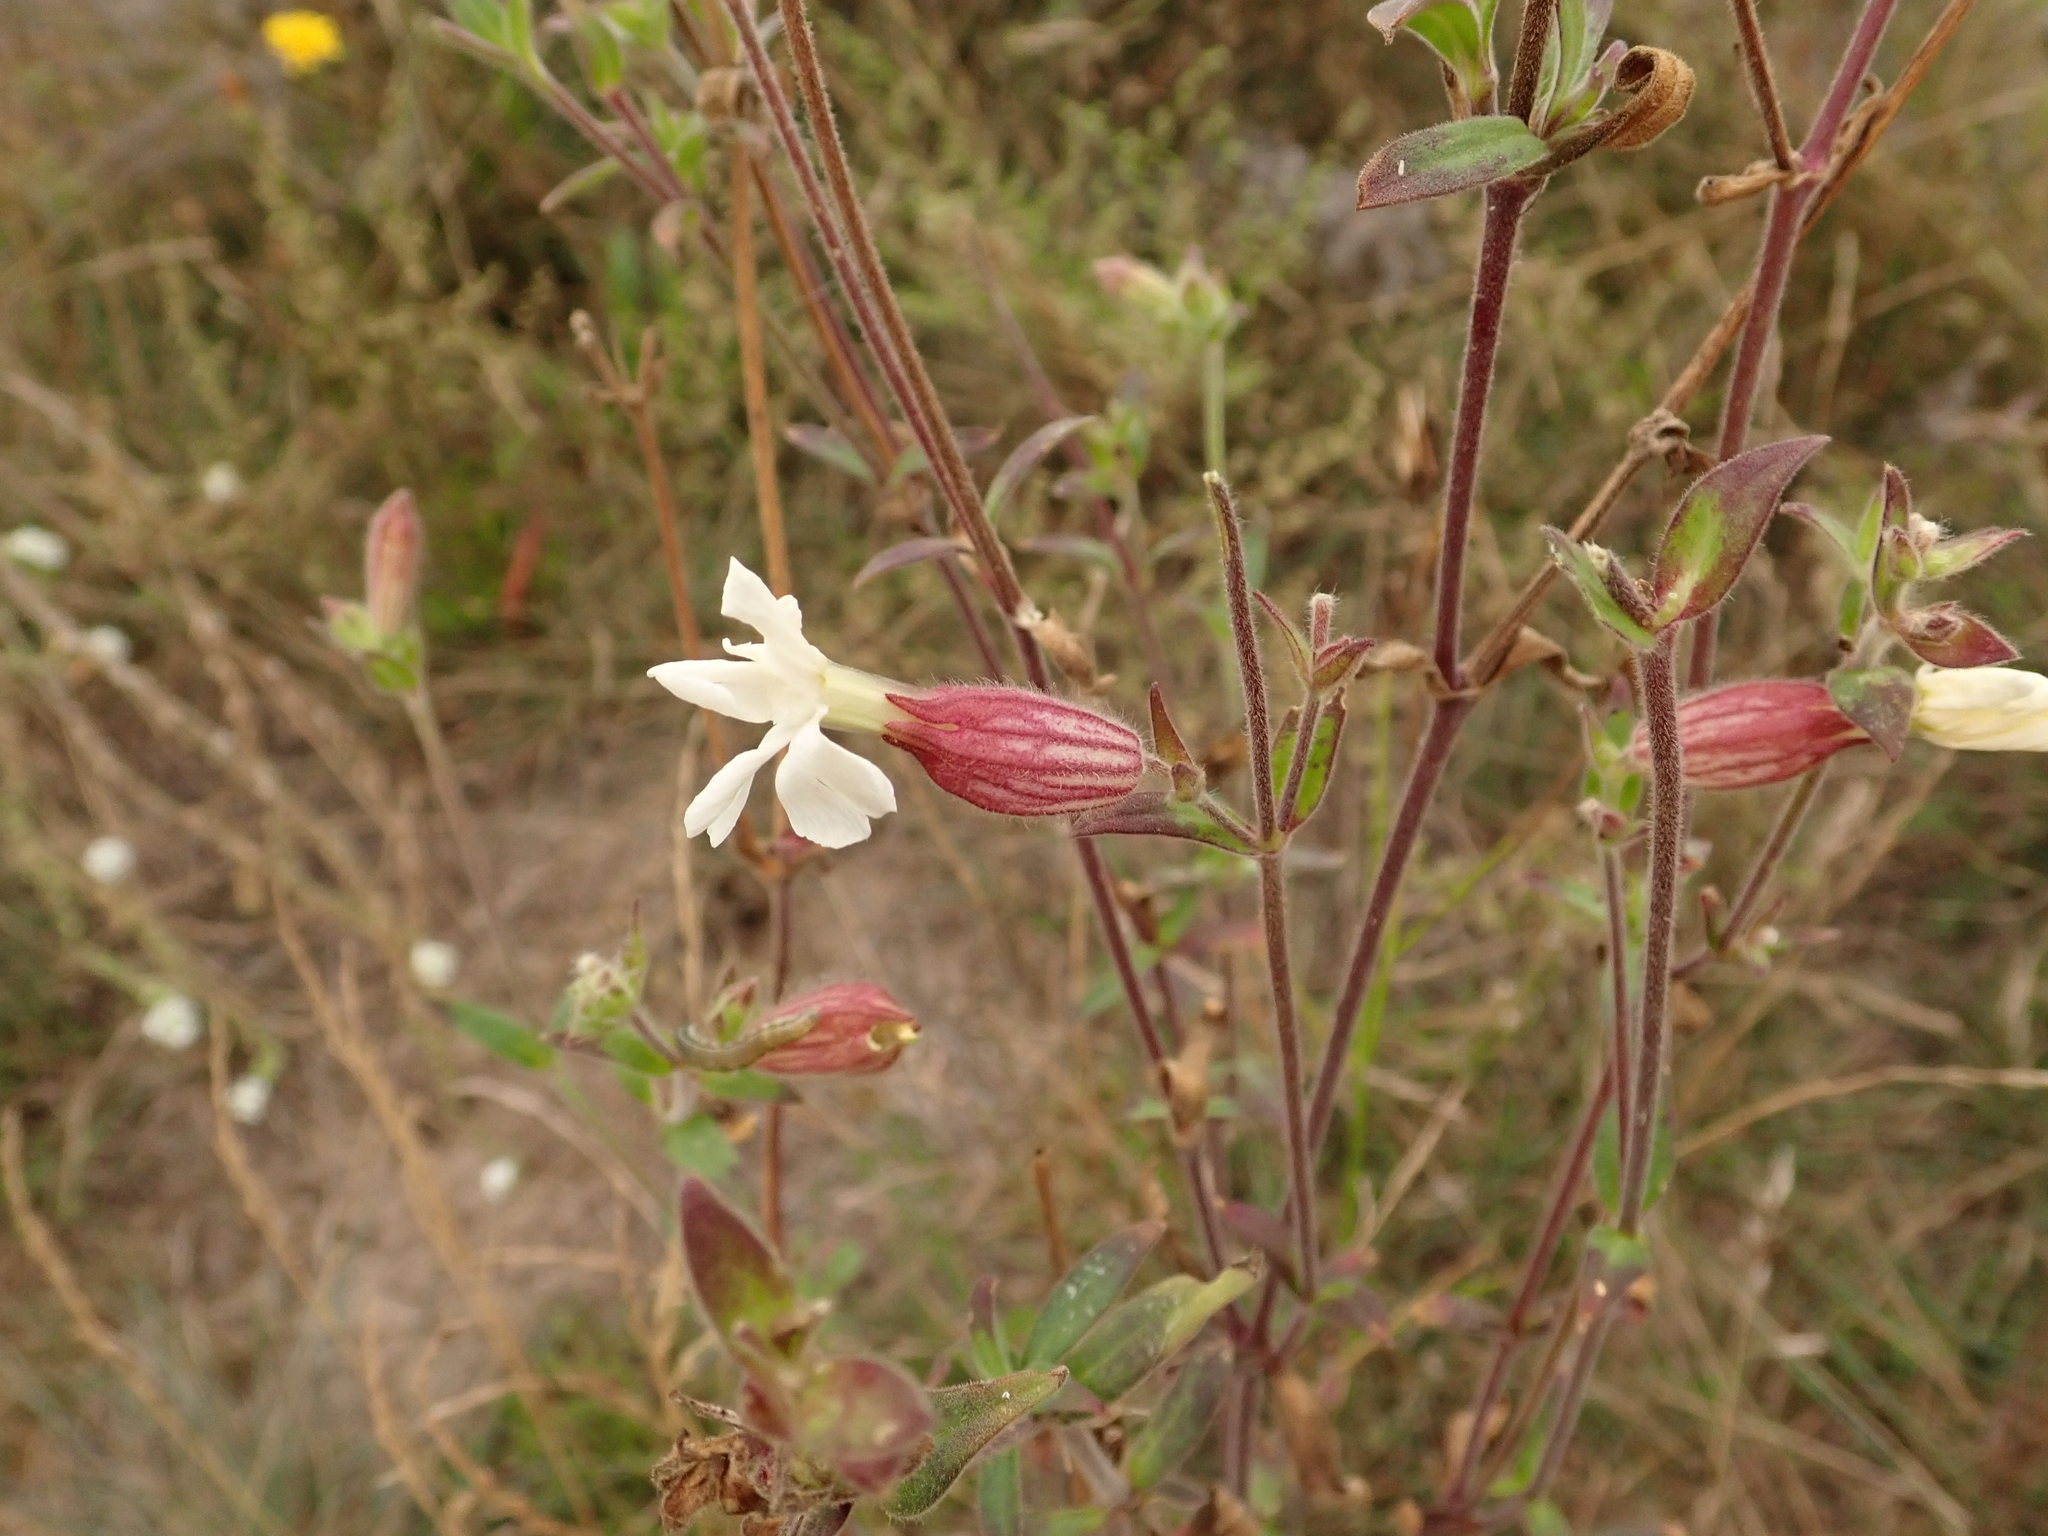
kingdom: Plantae
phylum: Tracheophyta
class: Magnoliopsida
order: Caryophyllales
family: Caryophyllaceae
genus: Silene
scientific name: Silene latifolia
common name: White campion
